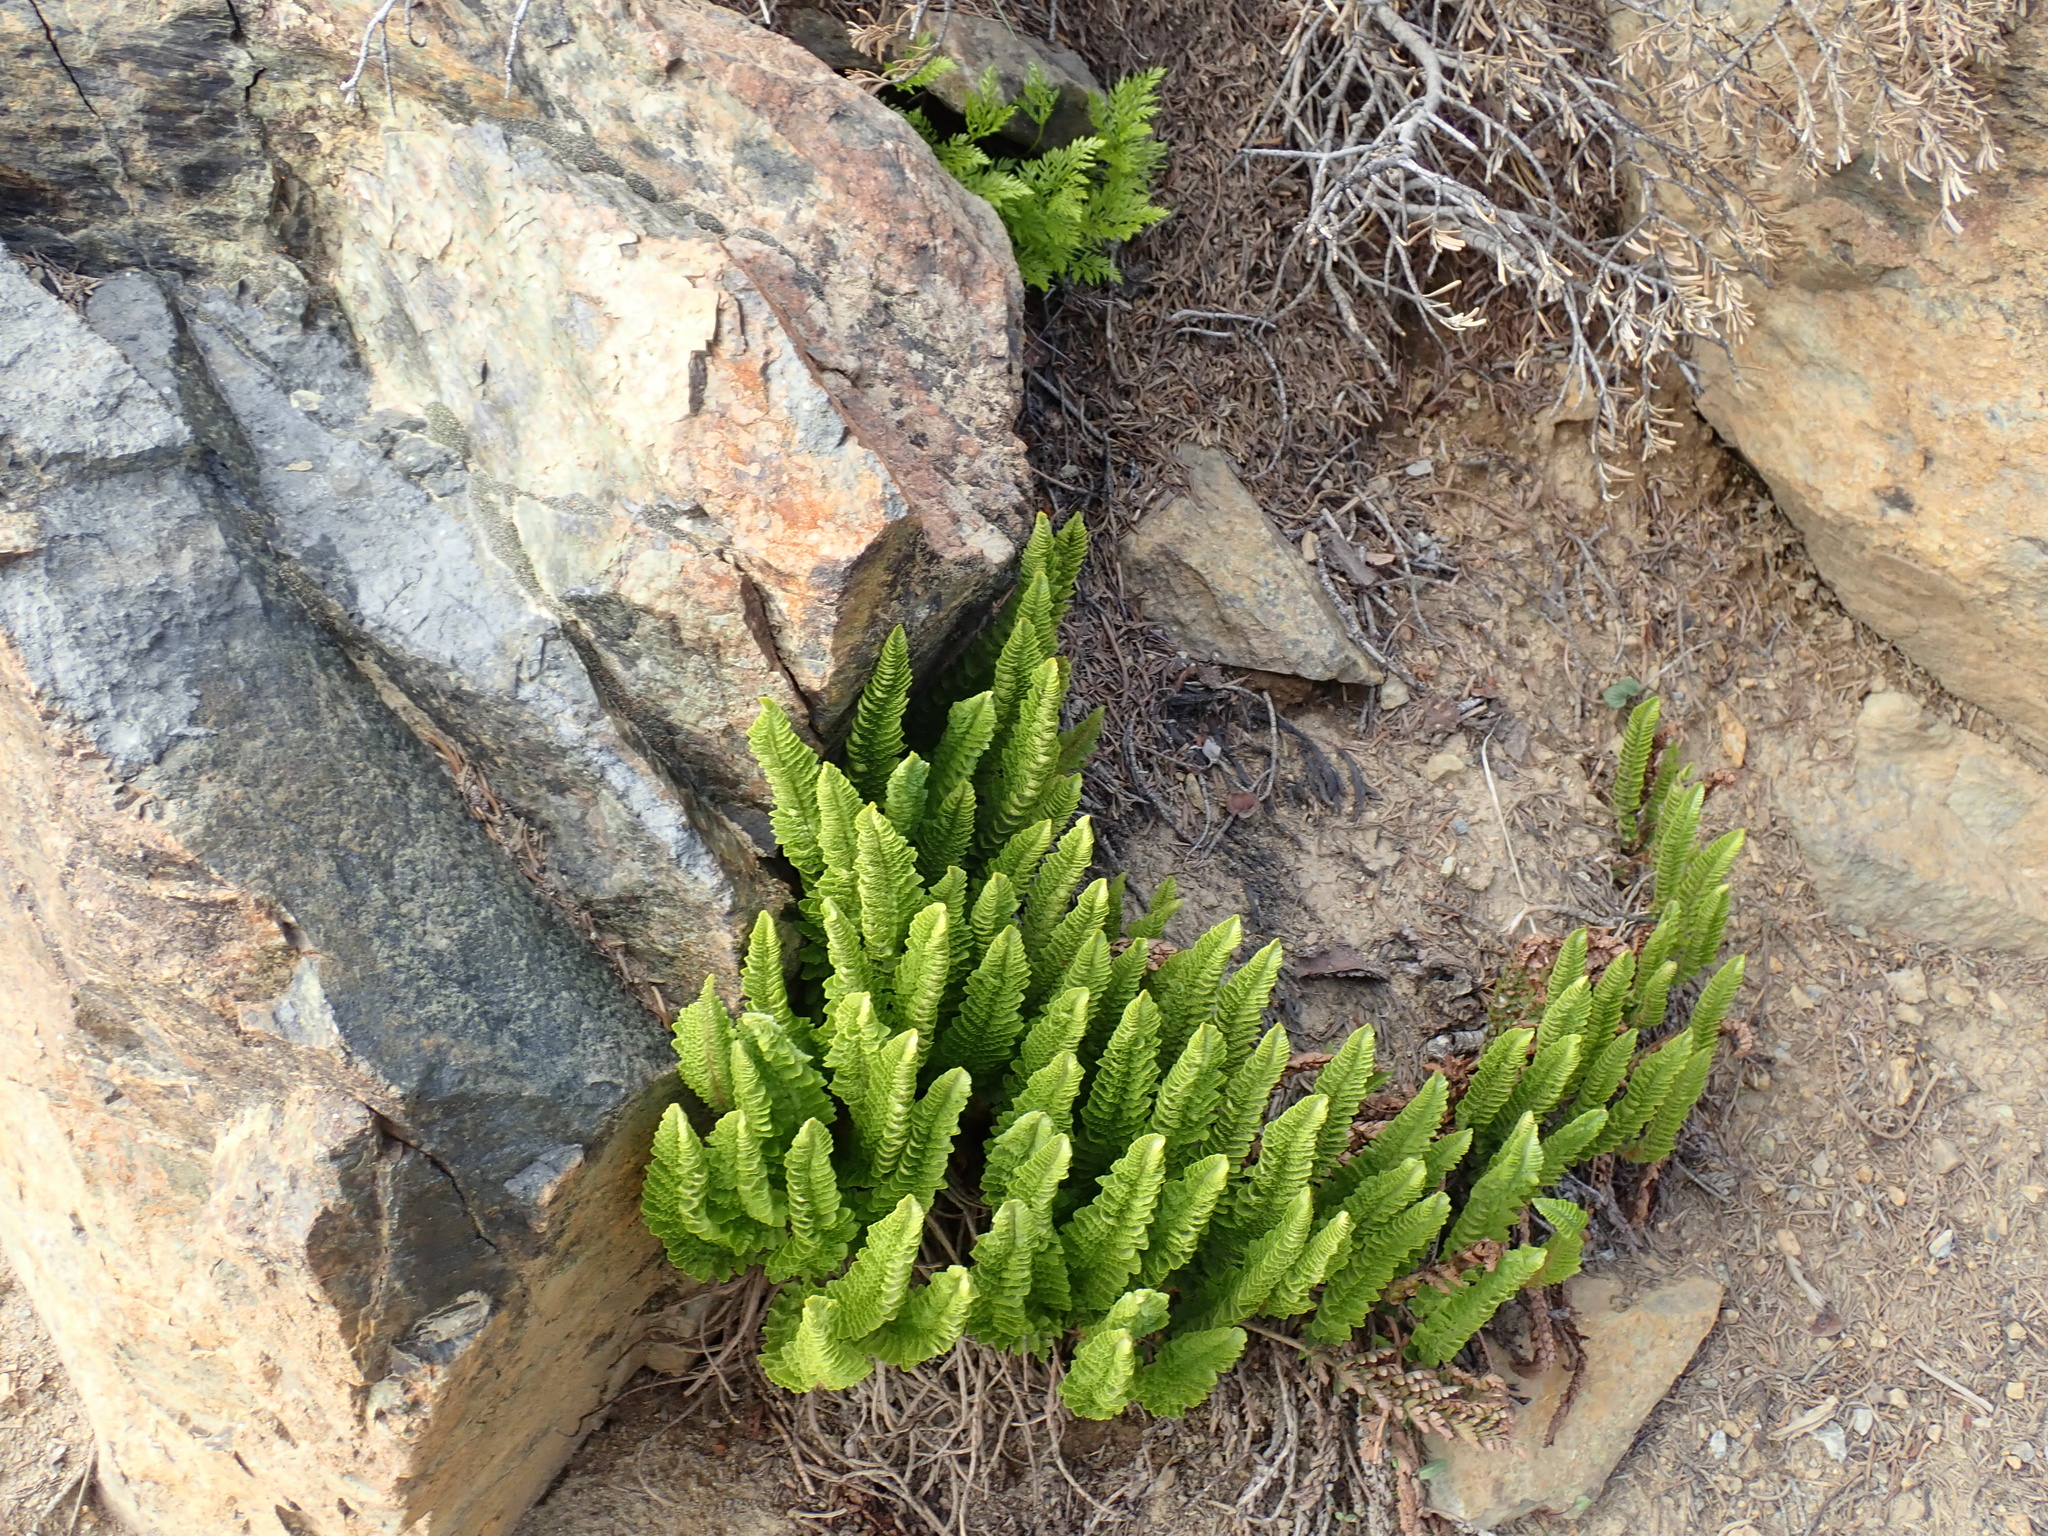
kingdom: Plantae
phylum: Tracheophyta
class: Polypodiopsida
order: Polypodiales
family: Dryopteridaceae
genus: Polystichum
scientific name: Polystichum lemmonii
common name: Lemmon's holly fern
